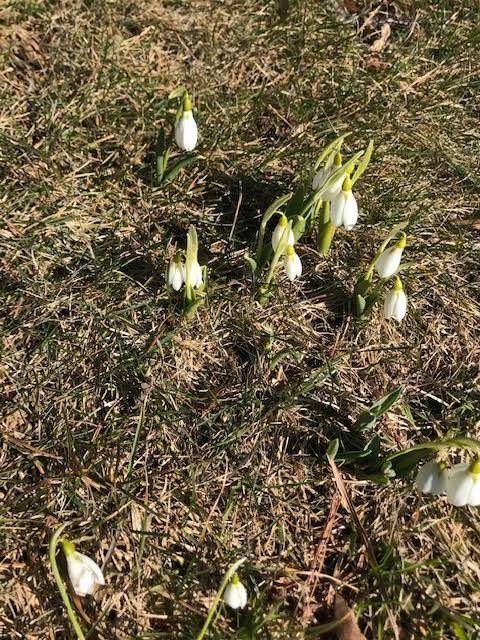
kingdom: Plantae
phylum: Tracheophyta
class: Liliopsida
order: Asparagales
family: Amaryllidaceae
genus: Galanthus
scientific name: Galanthus elwesii
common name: Greater snowdrop
